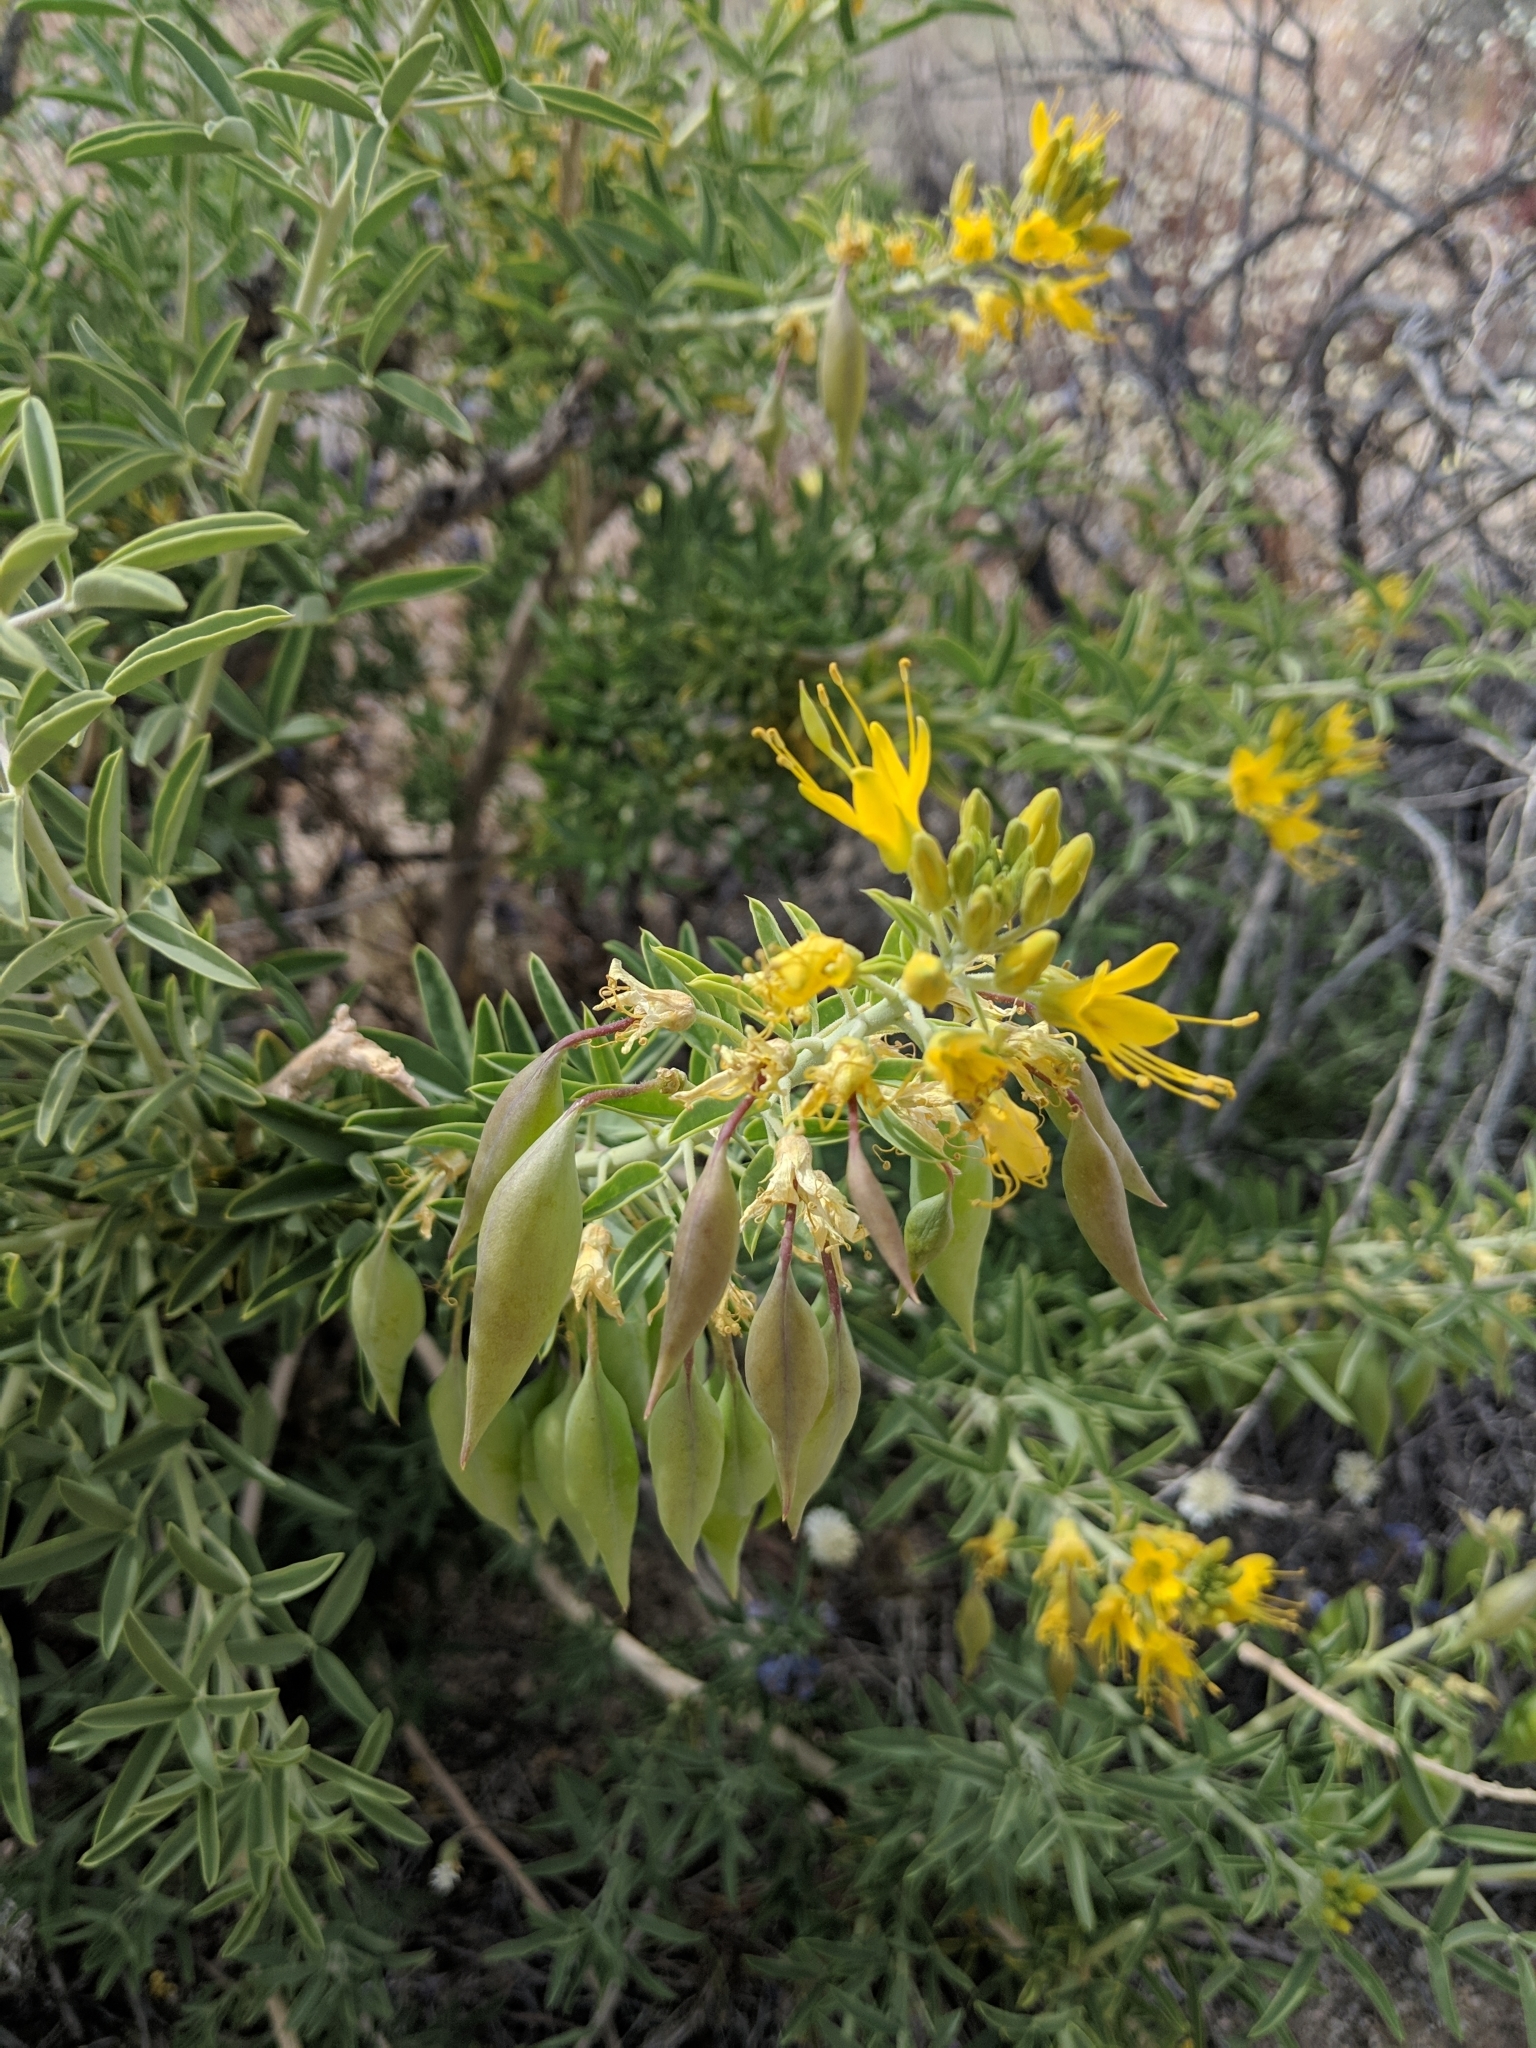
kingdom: Plantae
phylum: Tracheophyta
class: Magnoliopsida
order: Brassicales
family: Cleomaceae
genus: Cleomella
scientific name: Cleomella arborea
